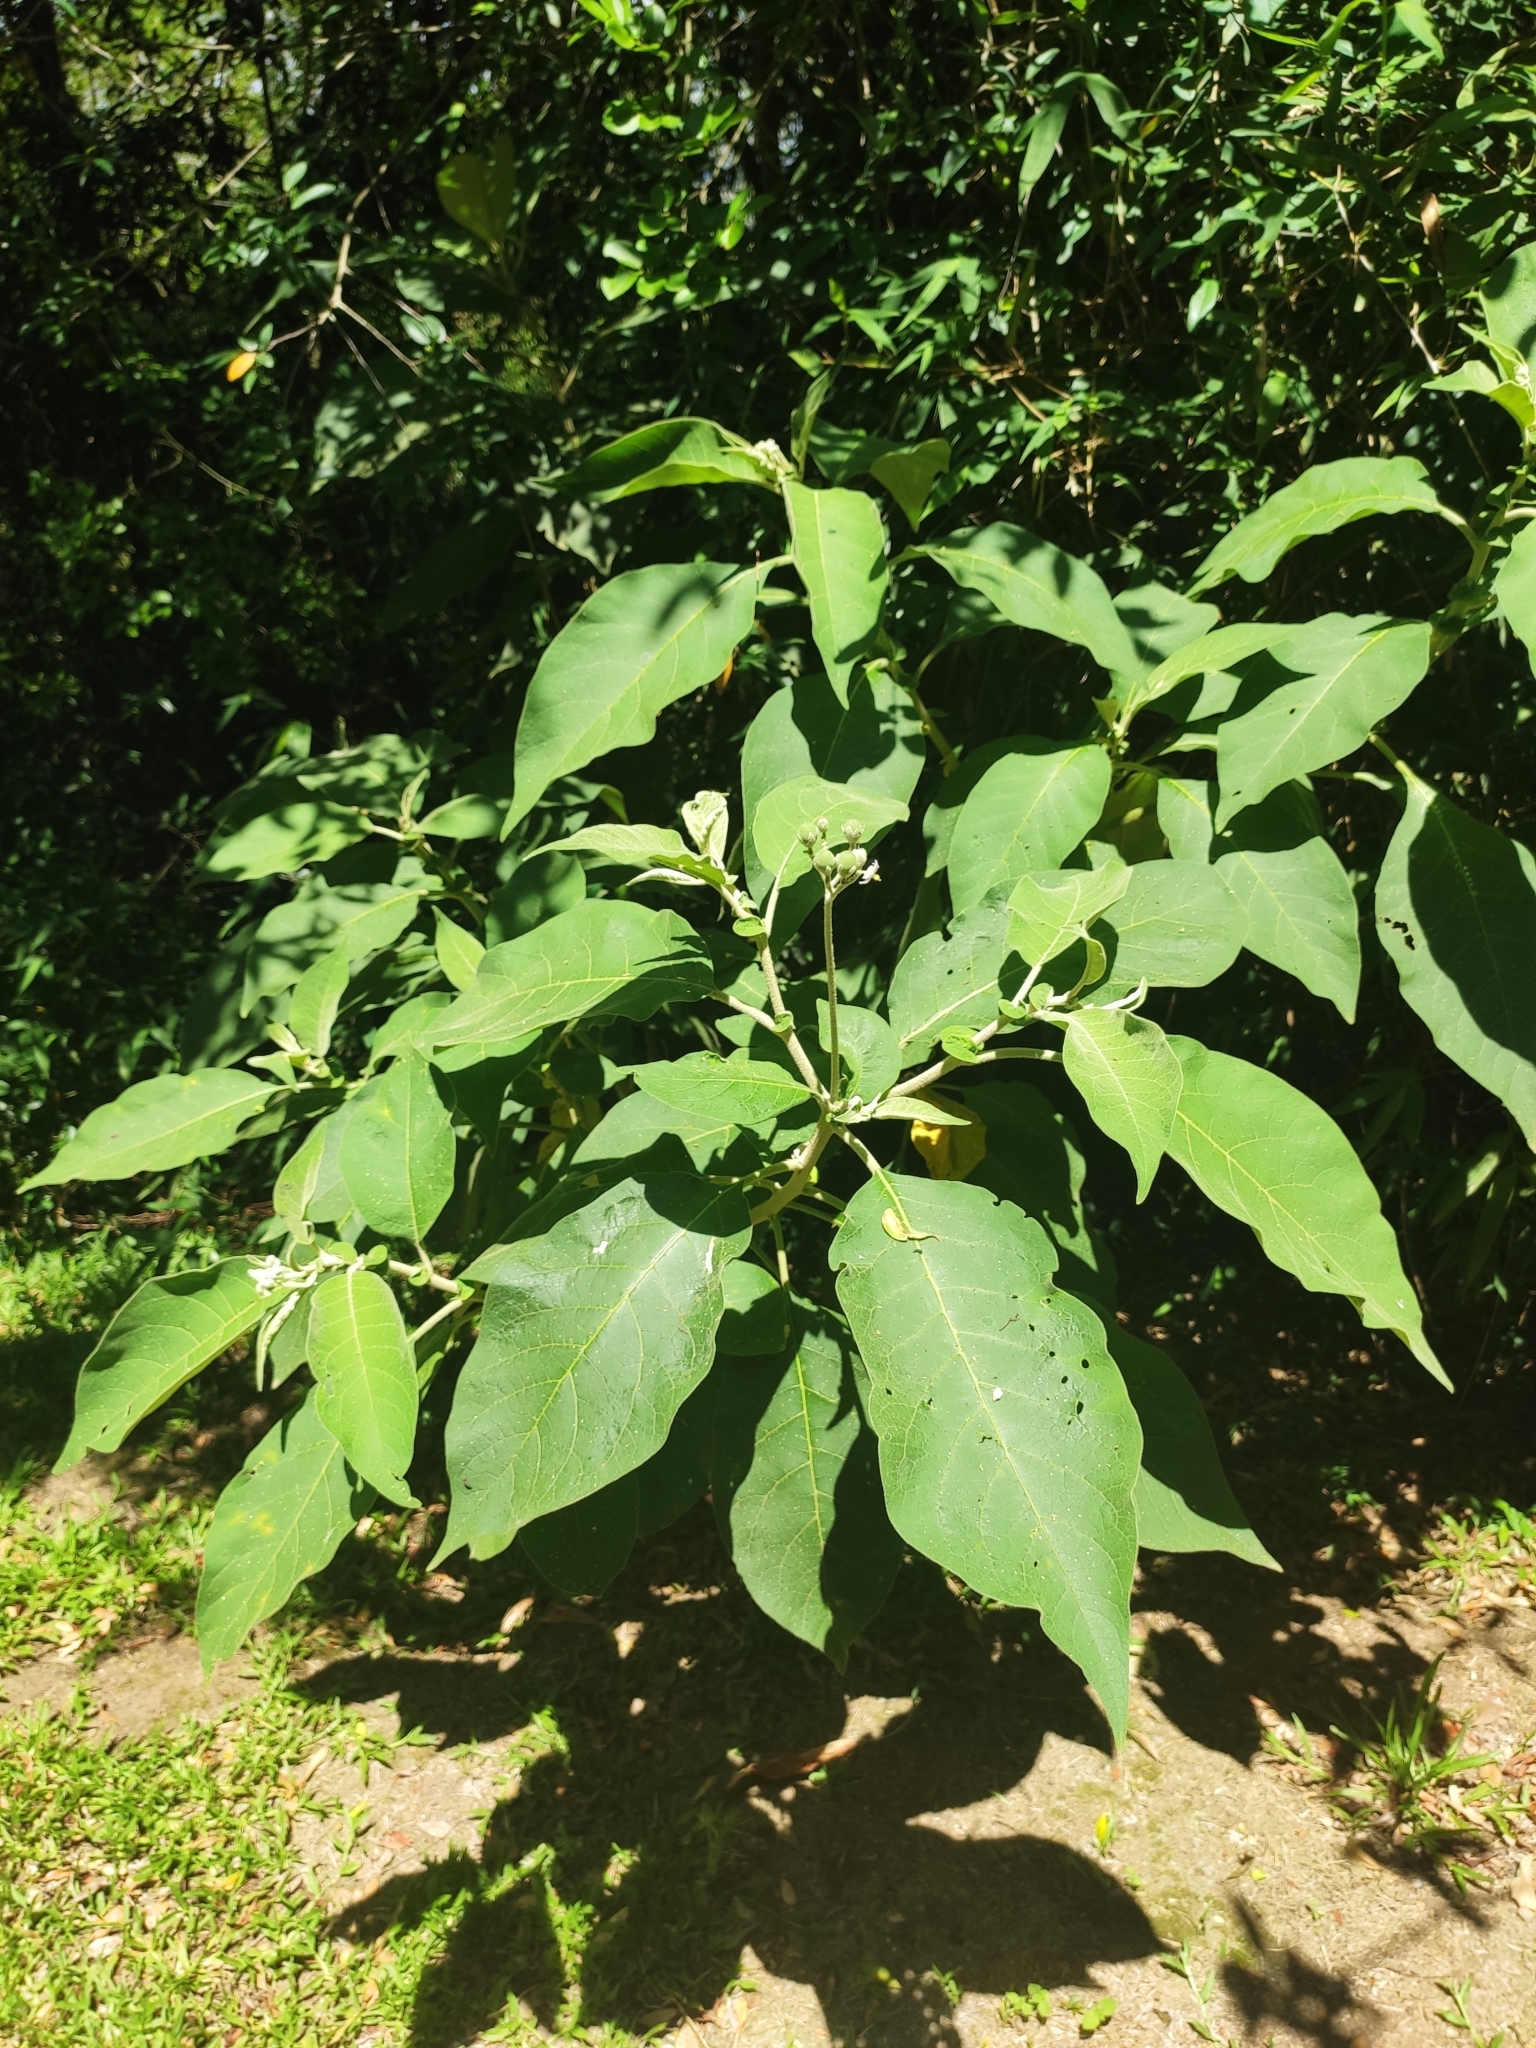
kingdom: Plantae
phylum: Tracheophyta
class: Magnoliopsida
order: Solanales
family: Solanaceae
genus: Solanum
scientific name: Solanum mauritianum
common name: Earleaf nightshade
